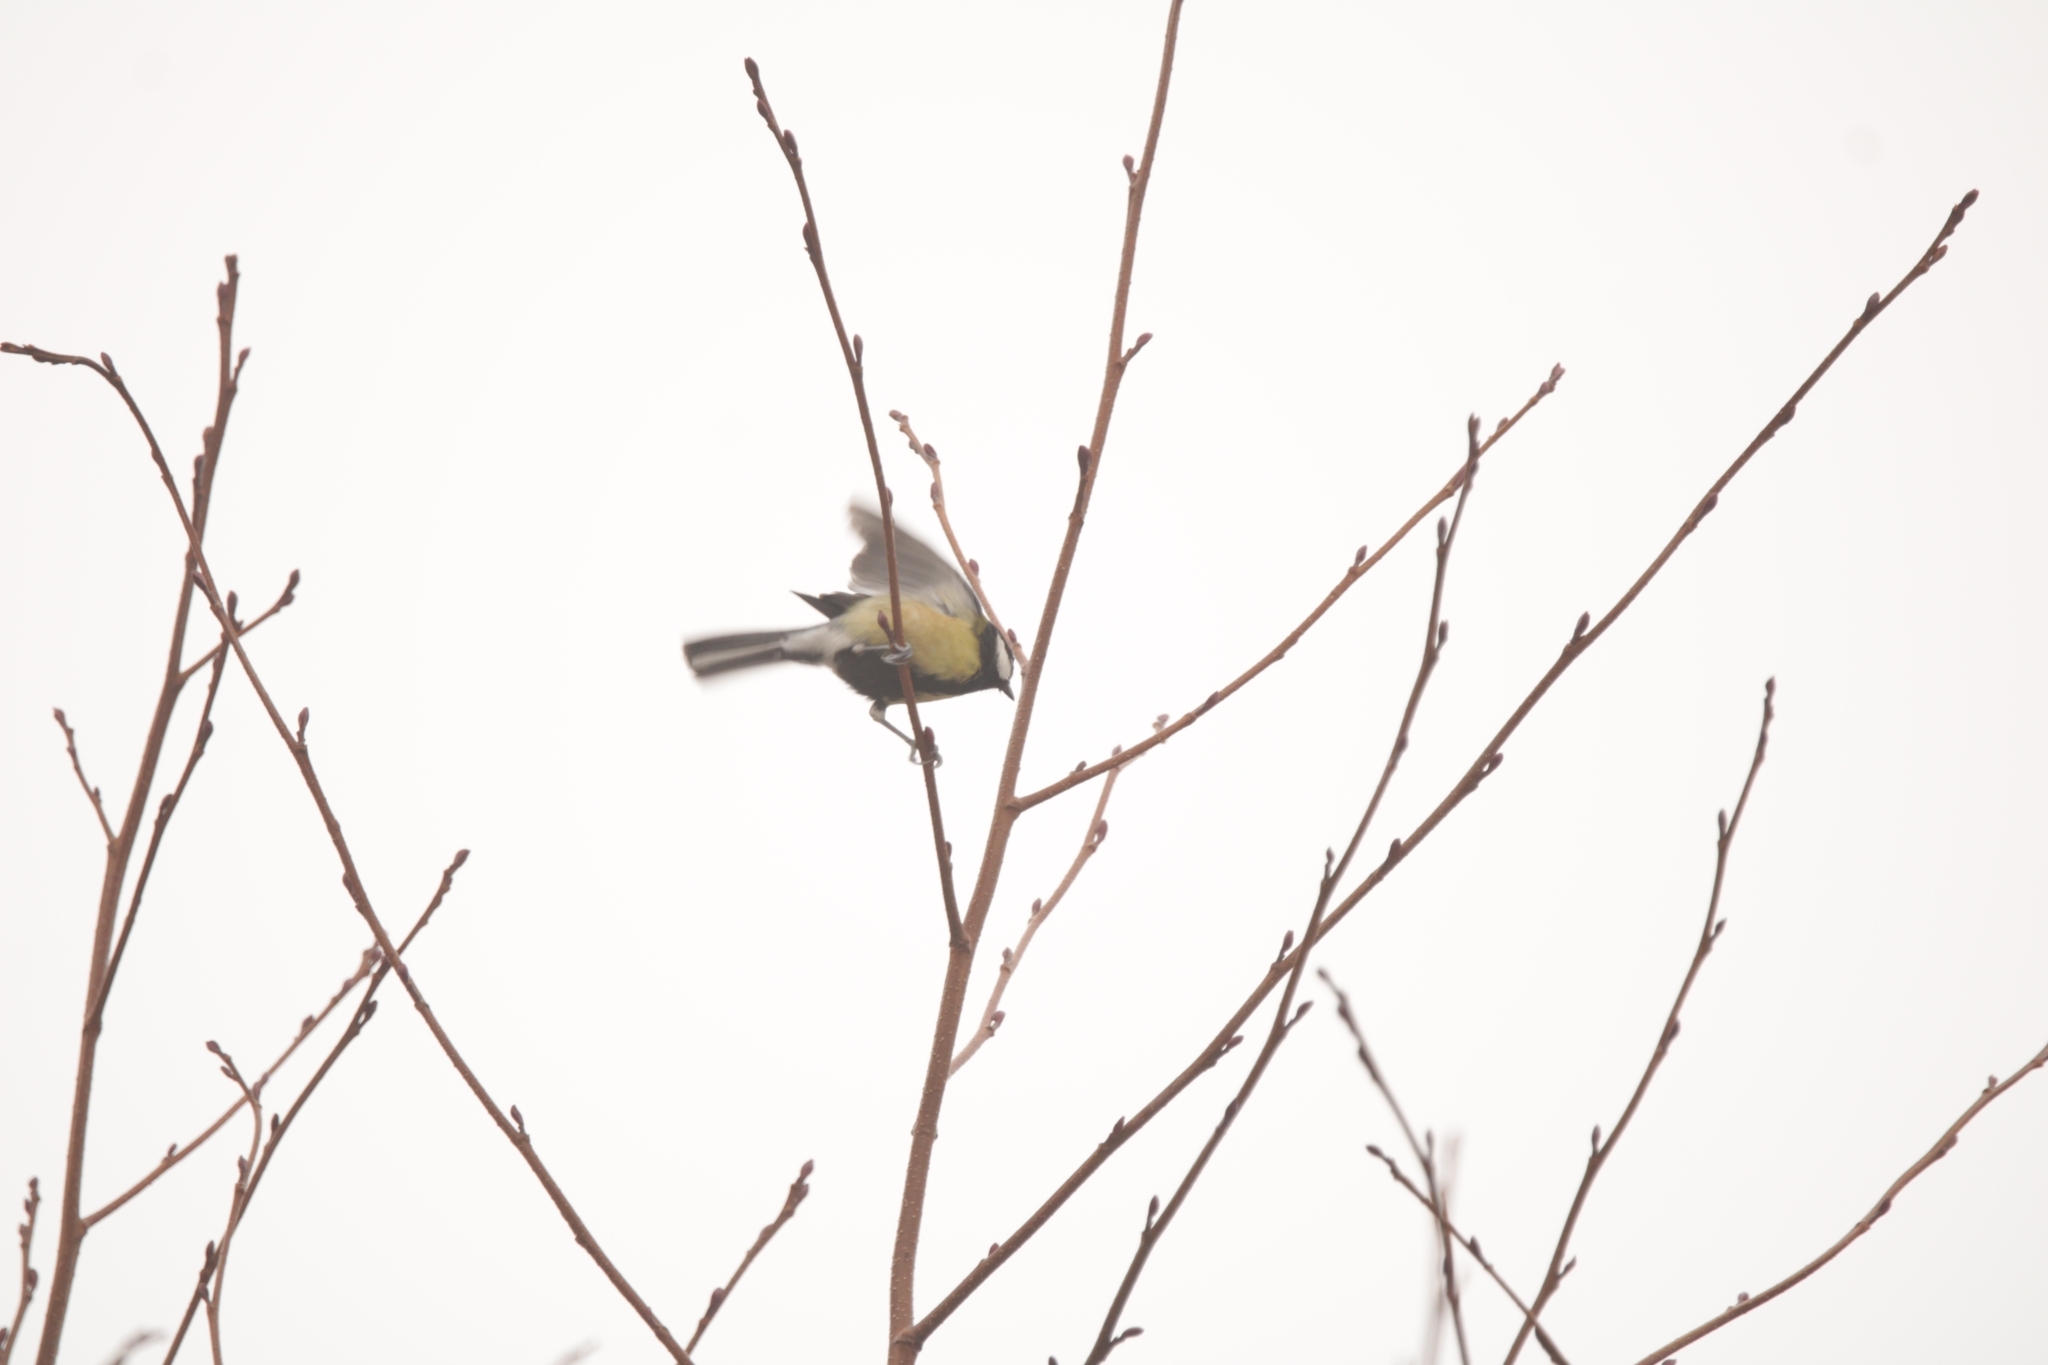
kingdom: Animalia
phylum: Chordata
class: Aves
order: Passeriformes
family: Paridae
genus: Parus
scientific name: Parus major
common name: Great tit
